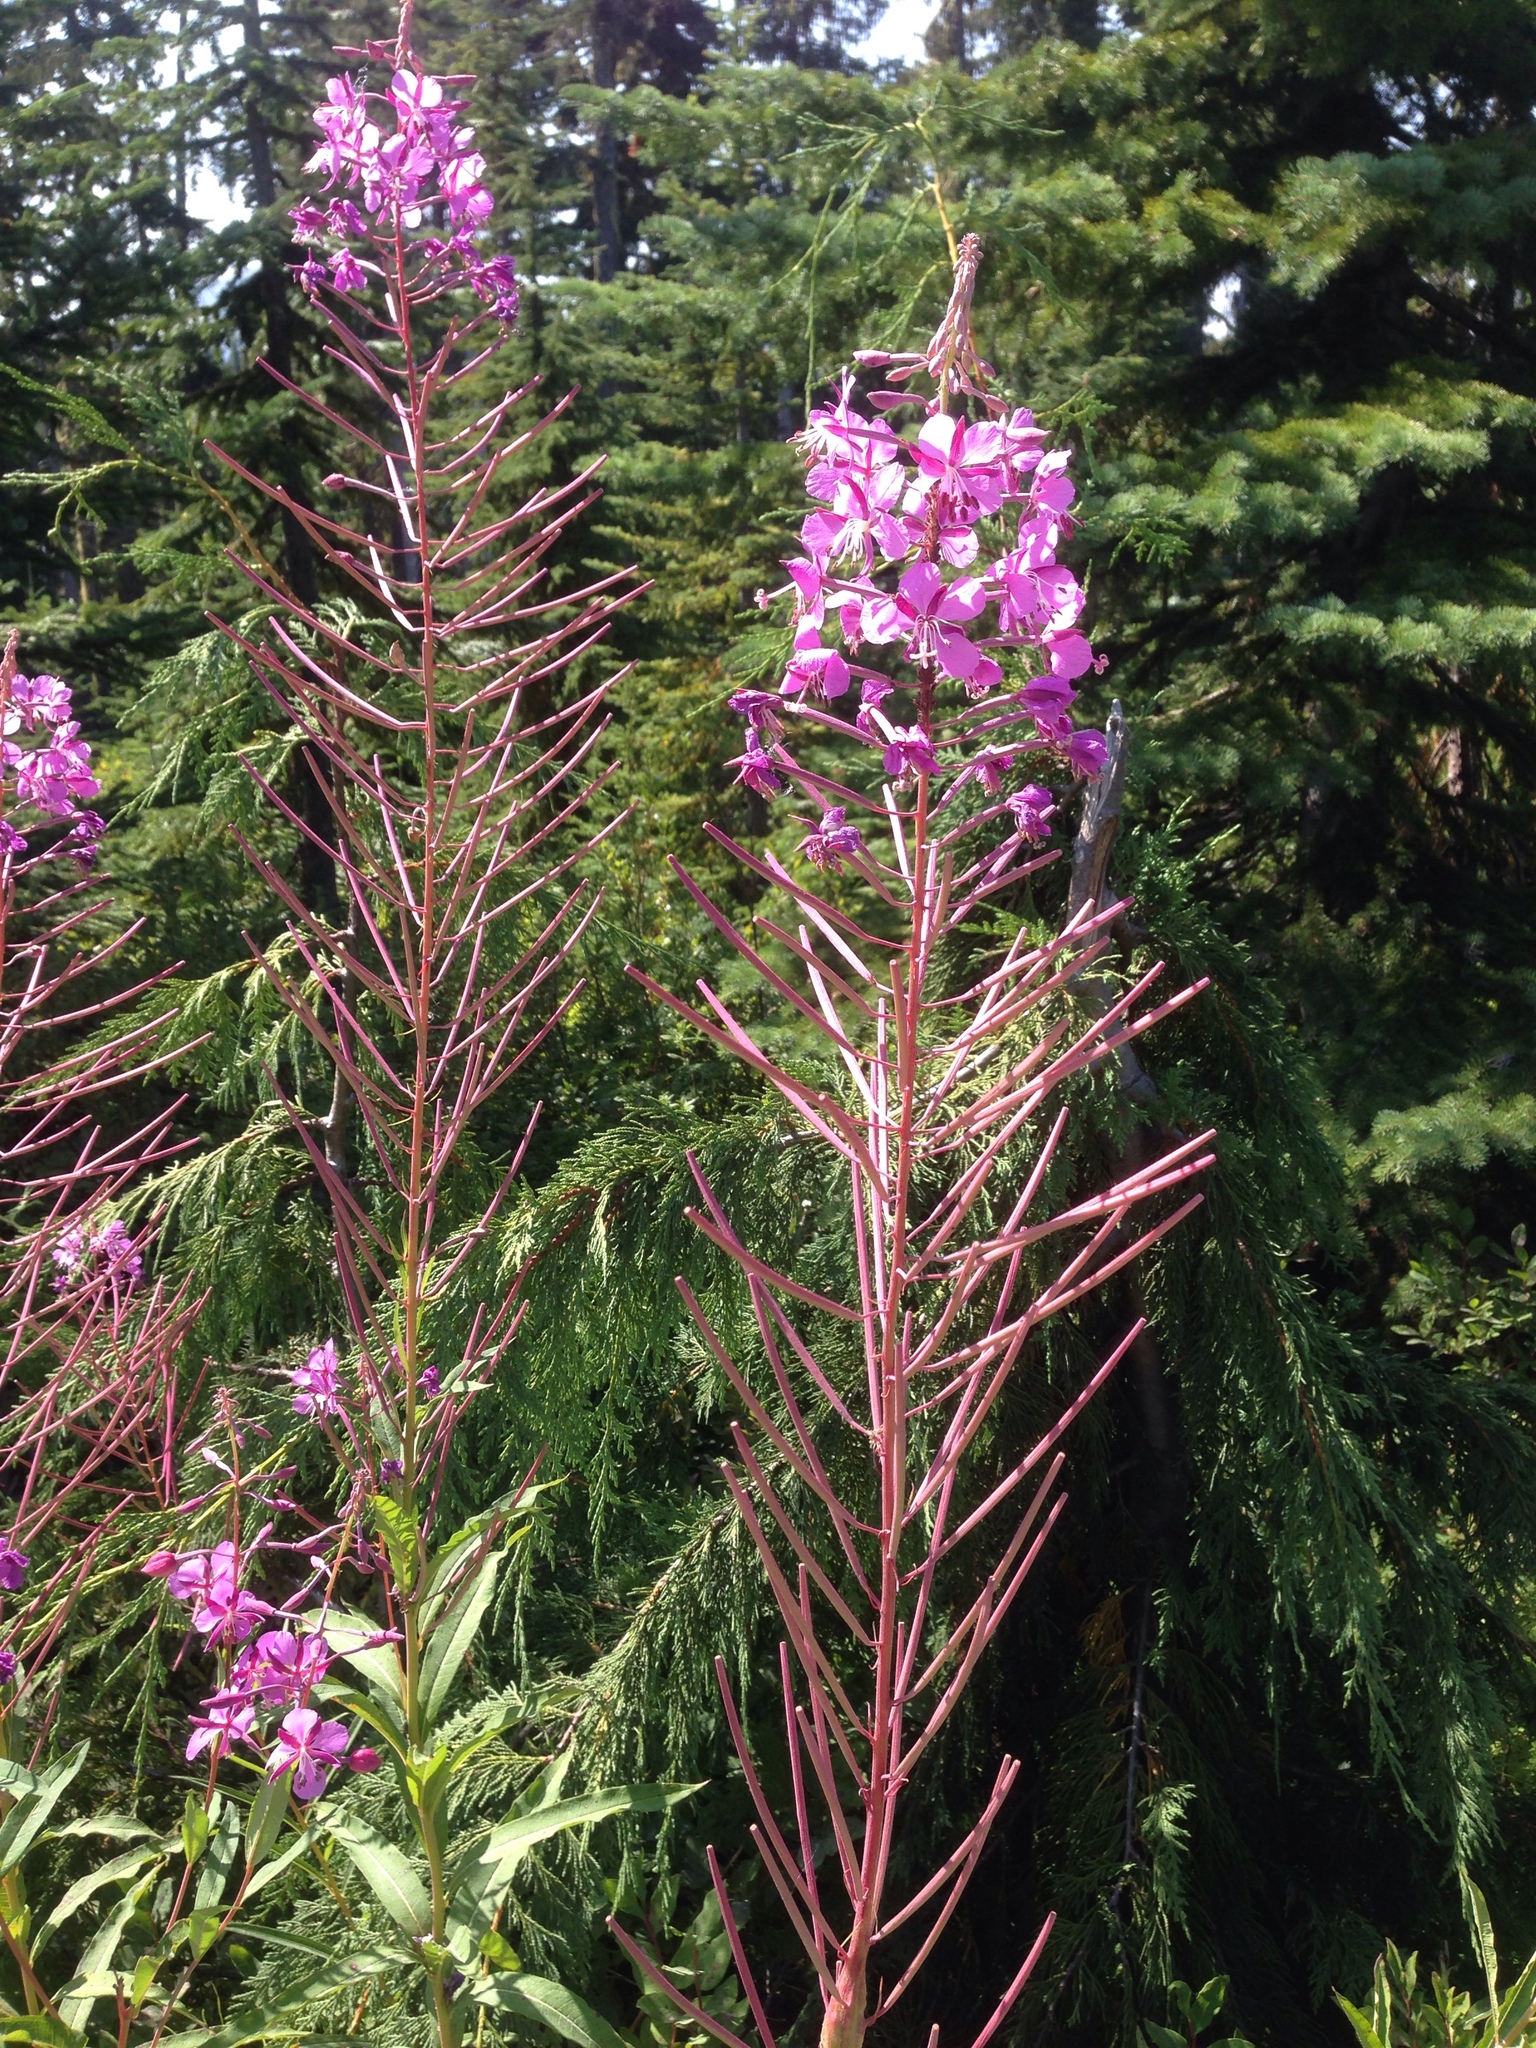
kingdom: Plantae
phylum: Tracheophyta
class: Magnoliopsida
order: Myrtales
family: Onagraceae
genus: Chamaenerion
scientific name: Chamaenerion angustifolium
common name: Fireweed
